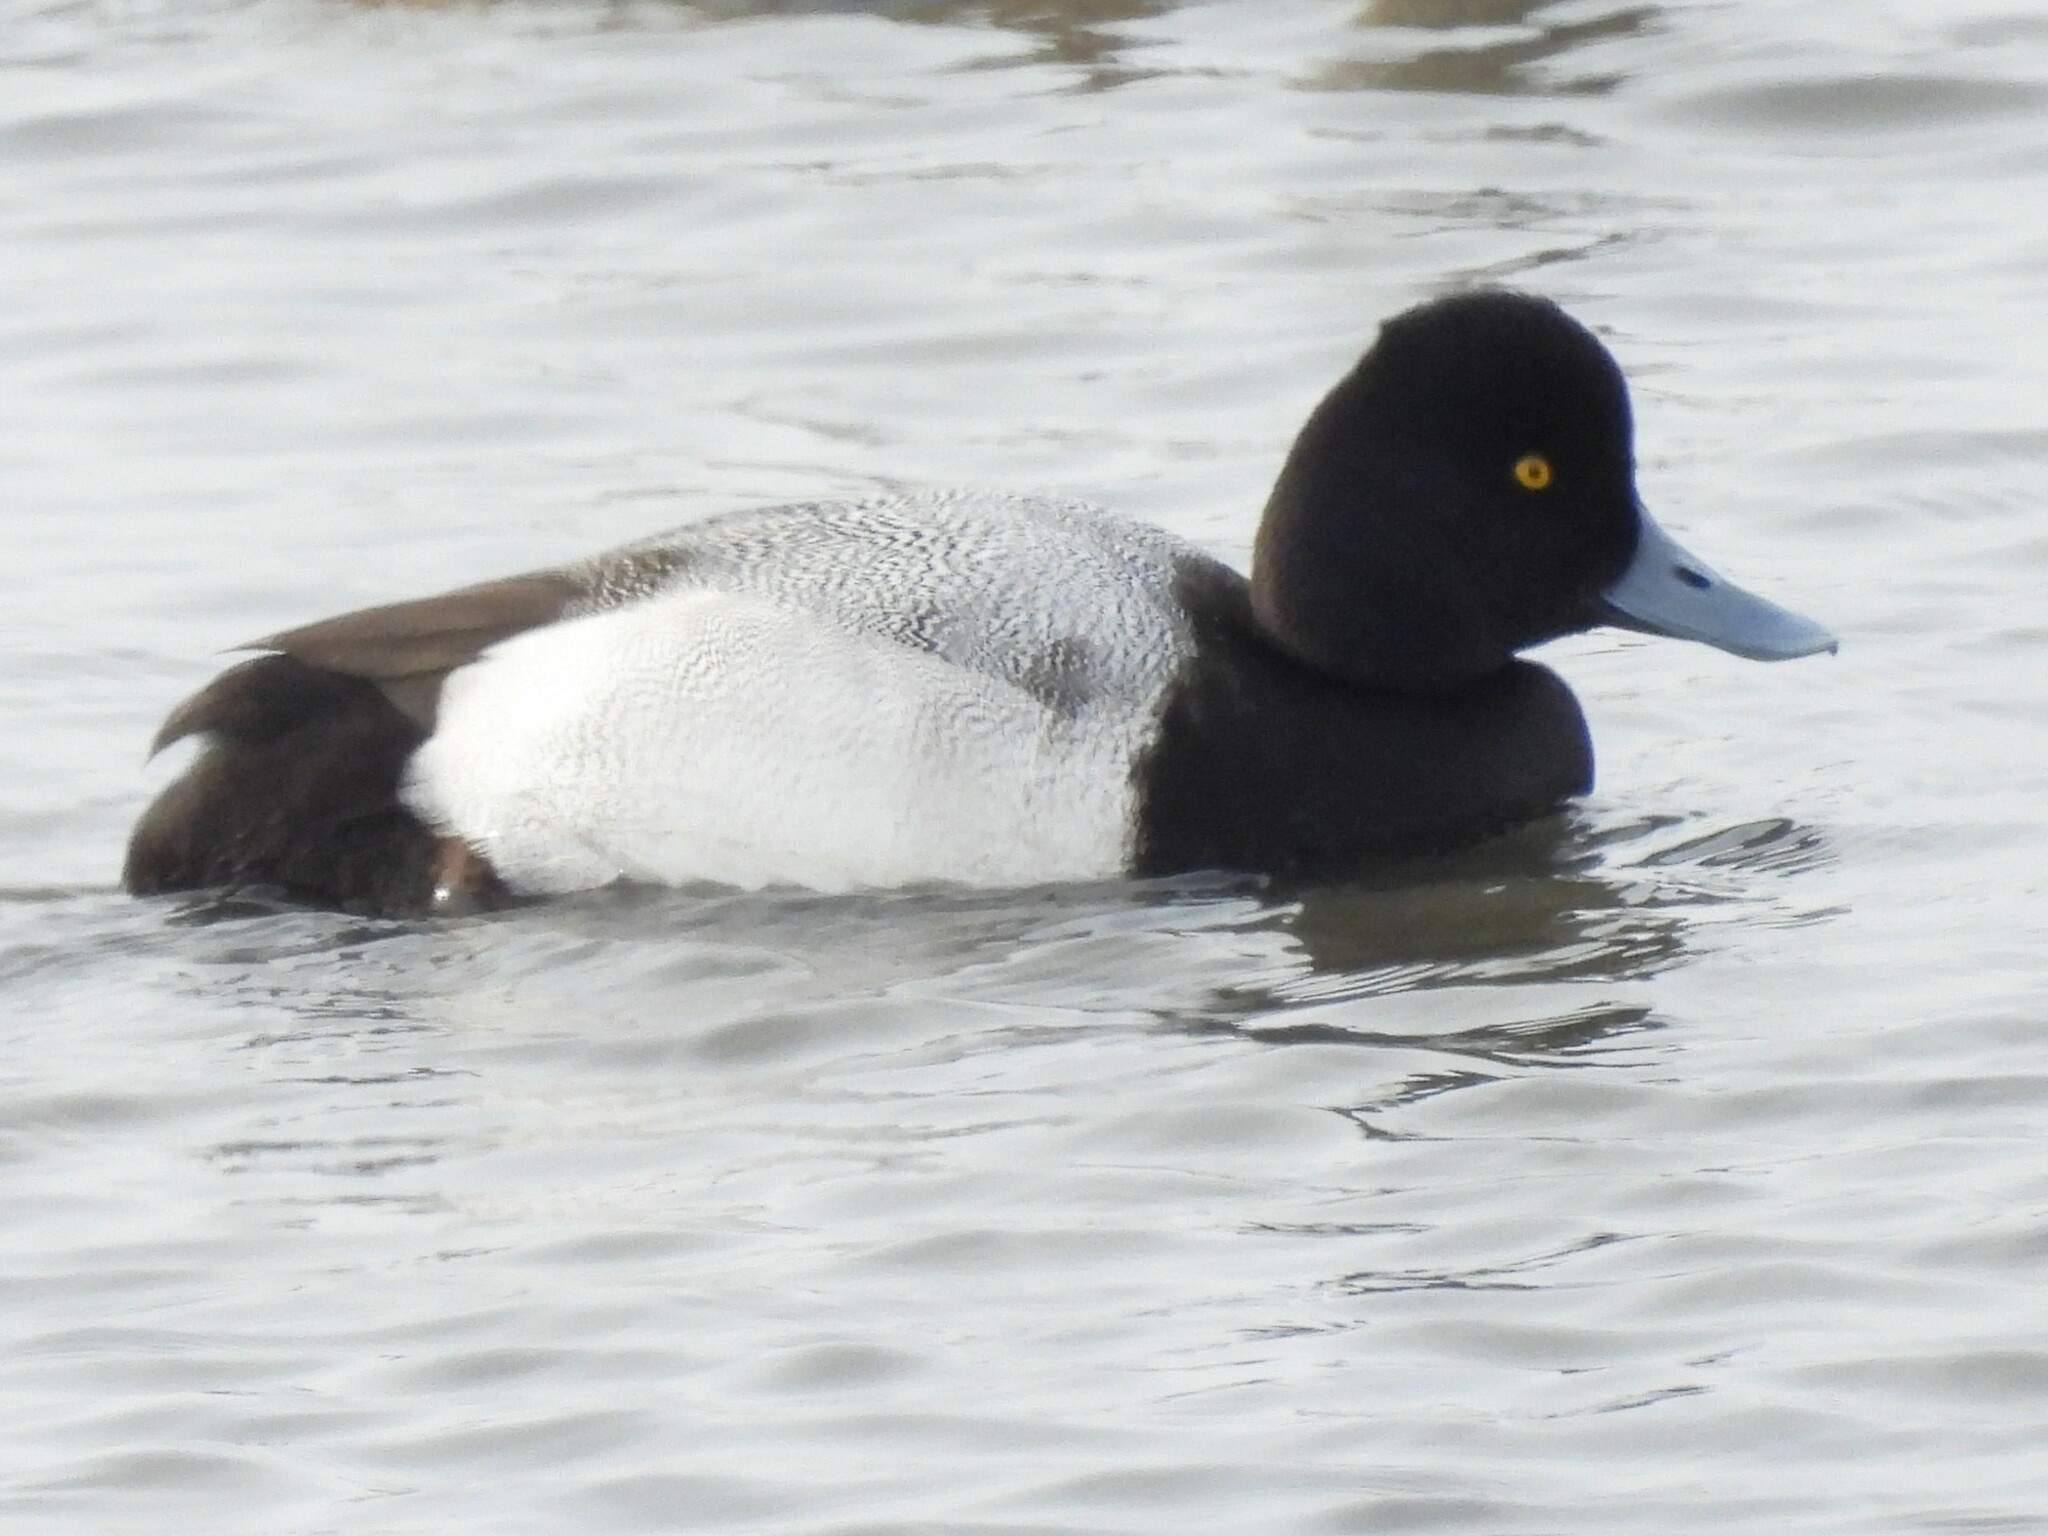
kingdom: Animalia
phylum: Chordata
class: Aves
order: Anseriformes
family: Anatidae
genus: Aythya
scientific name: Aythya affinis
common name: Lesser scaup
